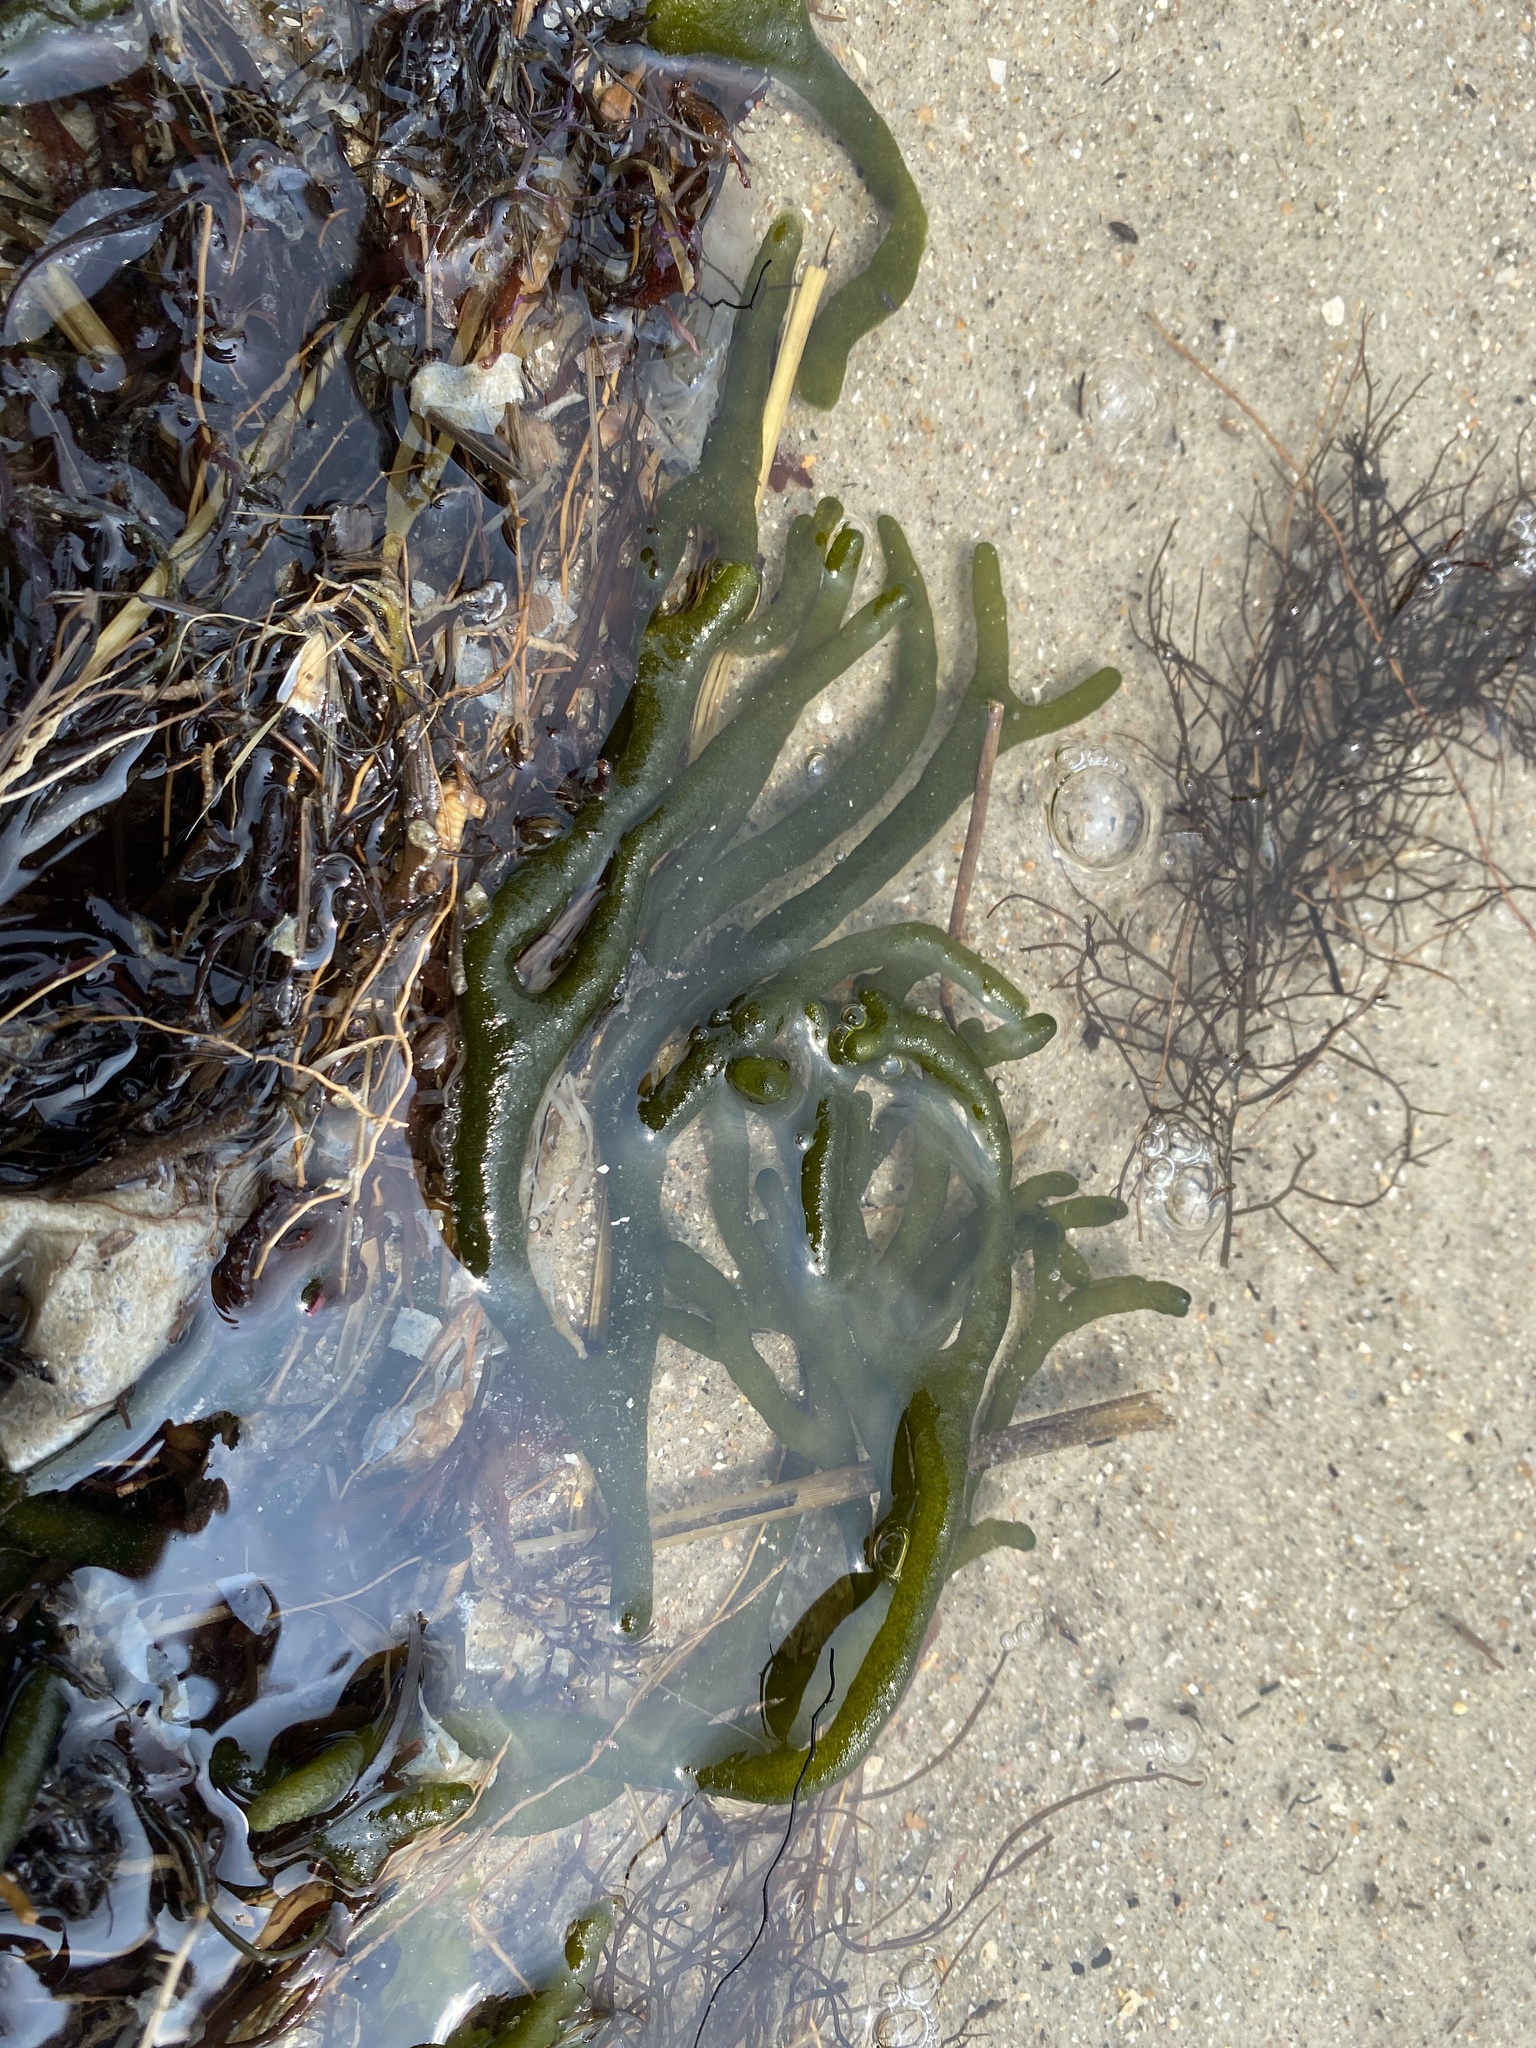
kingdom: Plantae
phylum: Chlorophyta
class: Ulvophyceae
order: Bryopsidales
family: Codiaceae
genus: Codium
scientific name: Codium fragile
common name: Dead man's fingers
